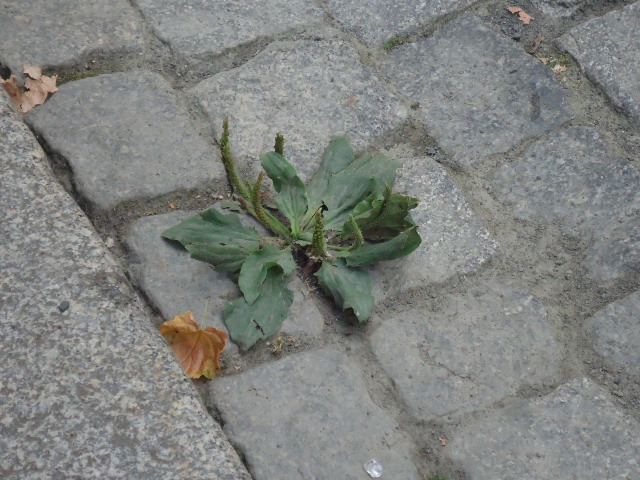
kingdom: Plantae
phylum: Tracheophyta
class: Magnoliopsida
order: Lamiales
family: Plantaginaceae
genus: Plantago
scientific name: Plantago major
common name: Common plantain
